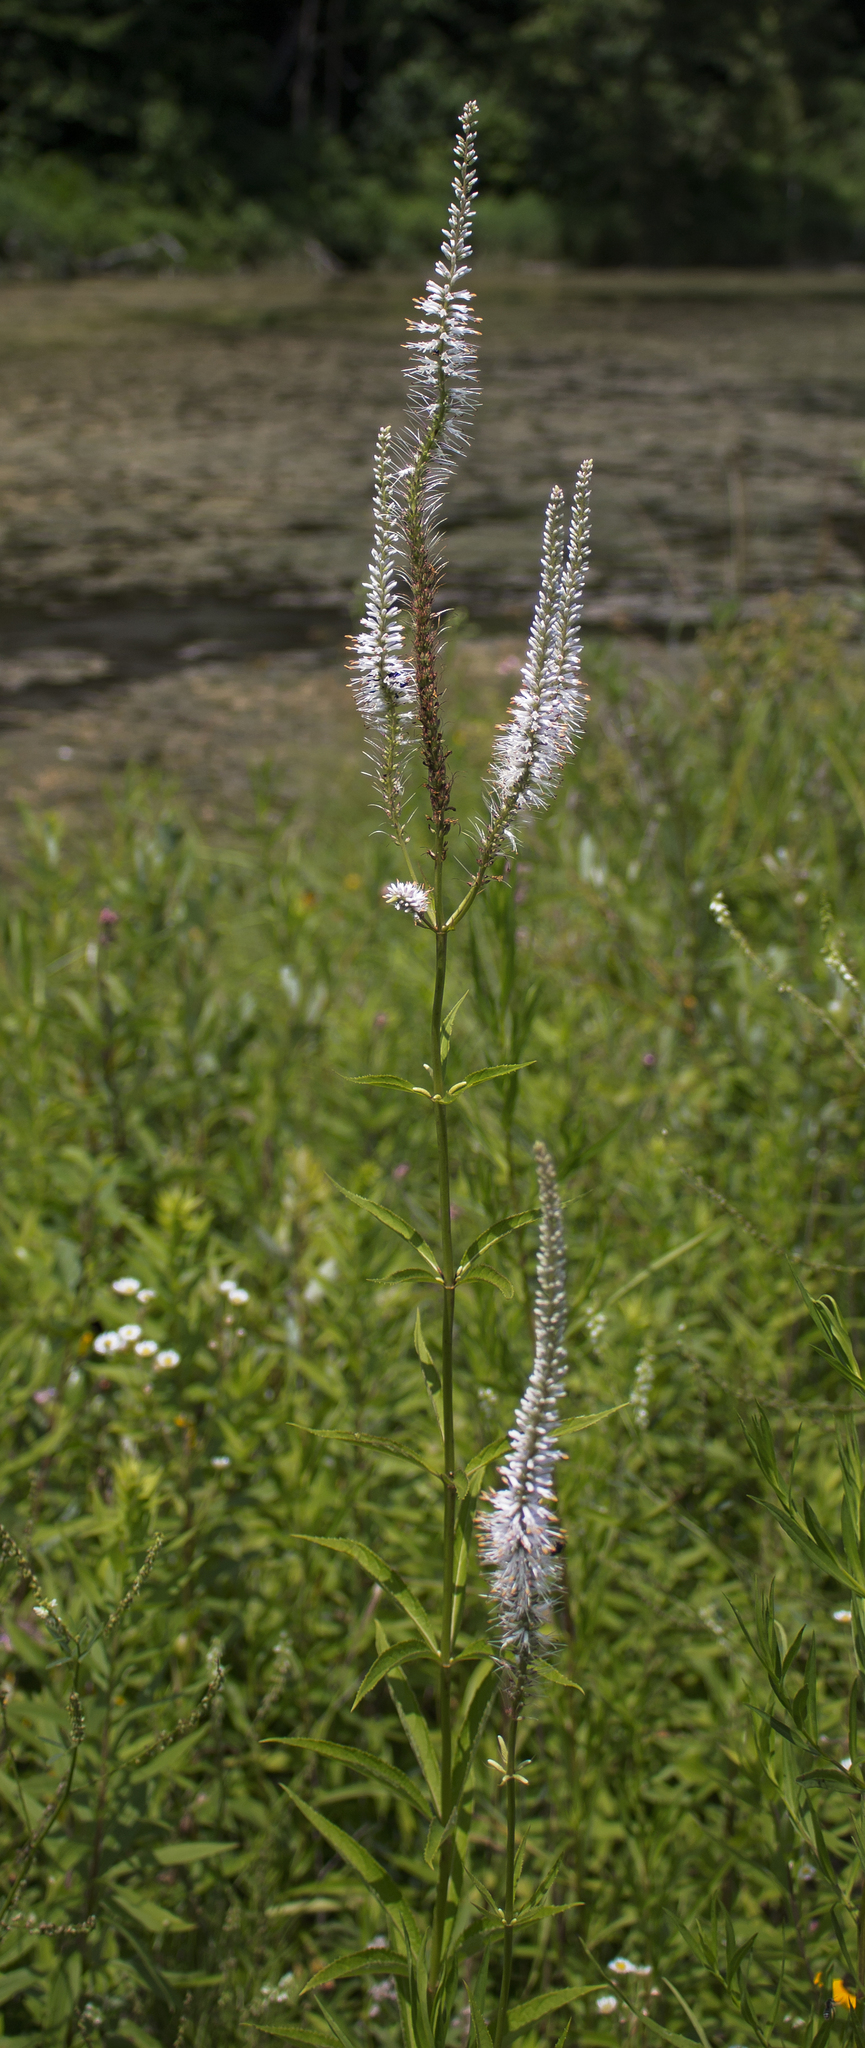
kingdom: Plantae
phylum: Tracheophyta
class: Magnoliopsida
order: Lamiales
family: Plantaginaceae
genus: Veronicastrum
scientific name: Veronicastrum virginicum
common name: Blackroot
